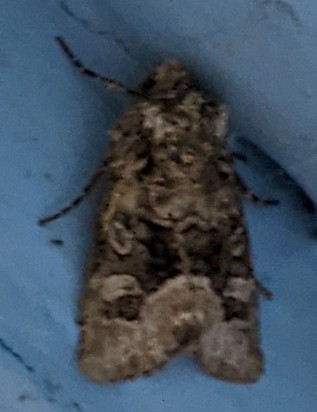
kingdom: Animalia
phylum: Arthropoda
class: Insecta
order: Lepidoptera
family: Noctuidae
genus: Lacinipolia
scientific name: Lacinipolia olivacea
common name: Olive arches moth
